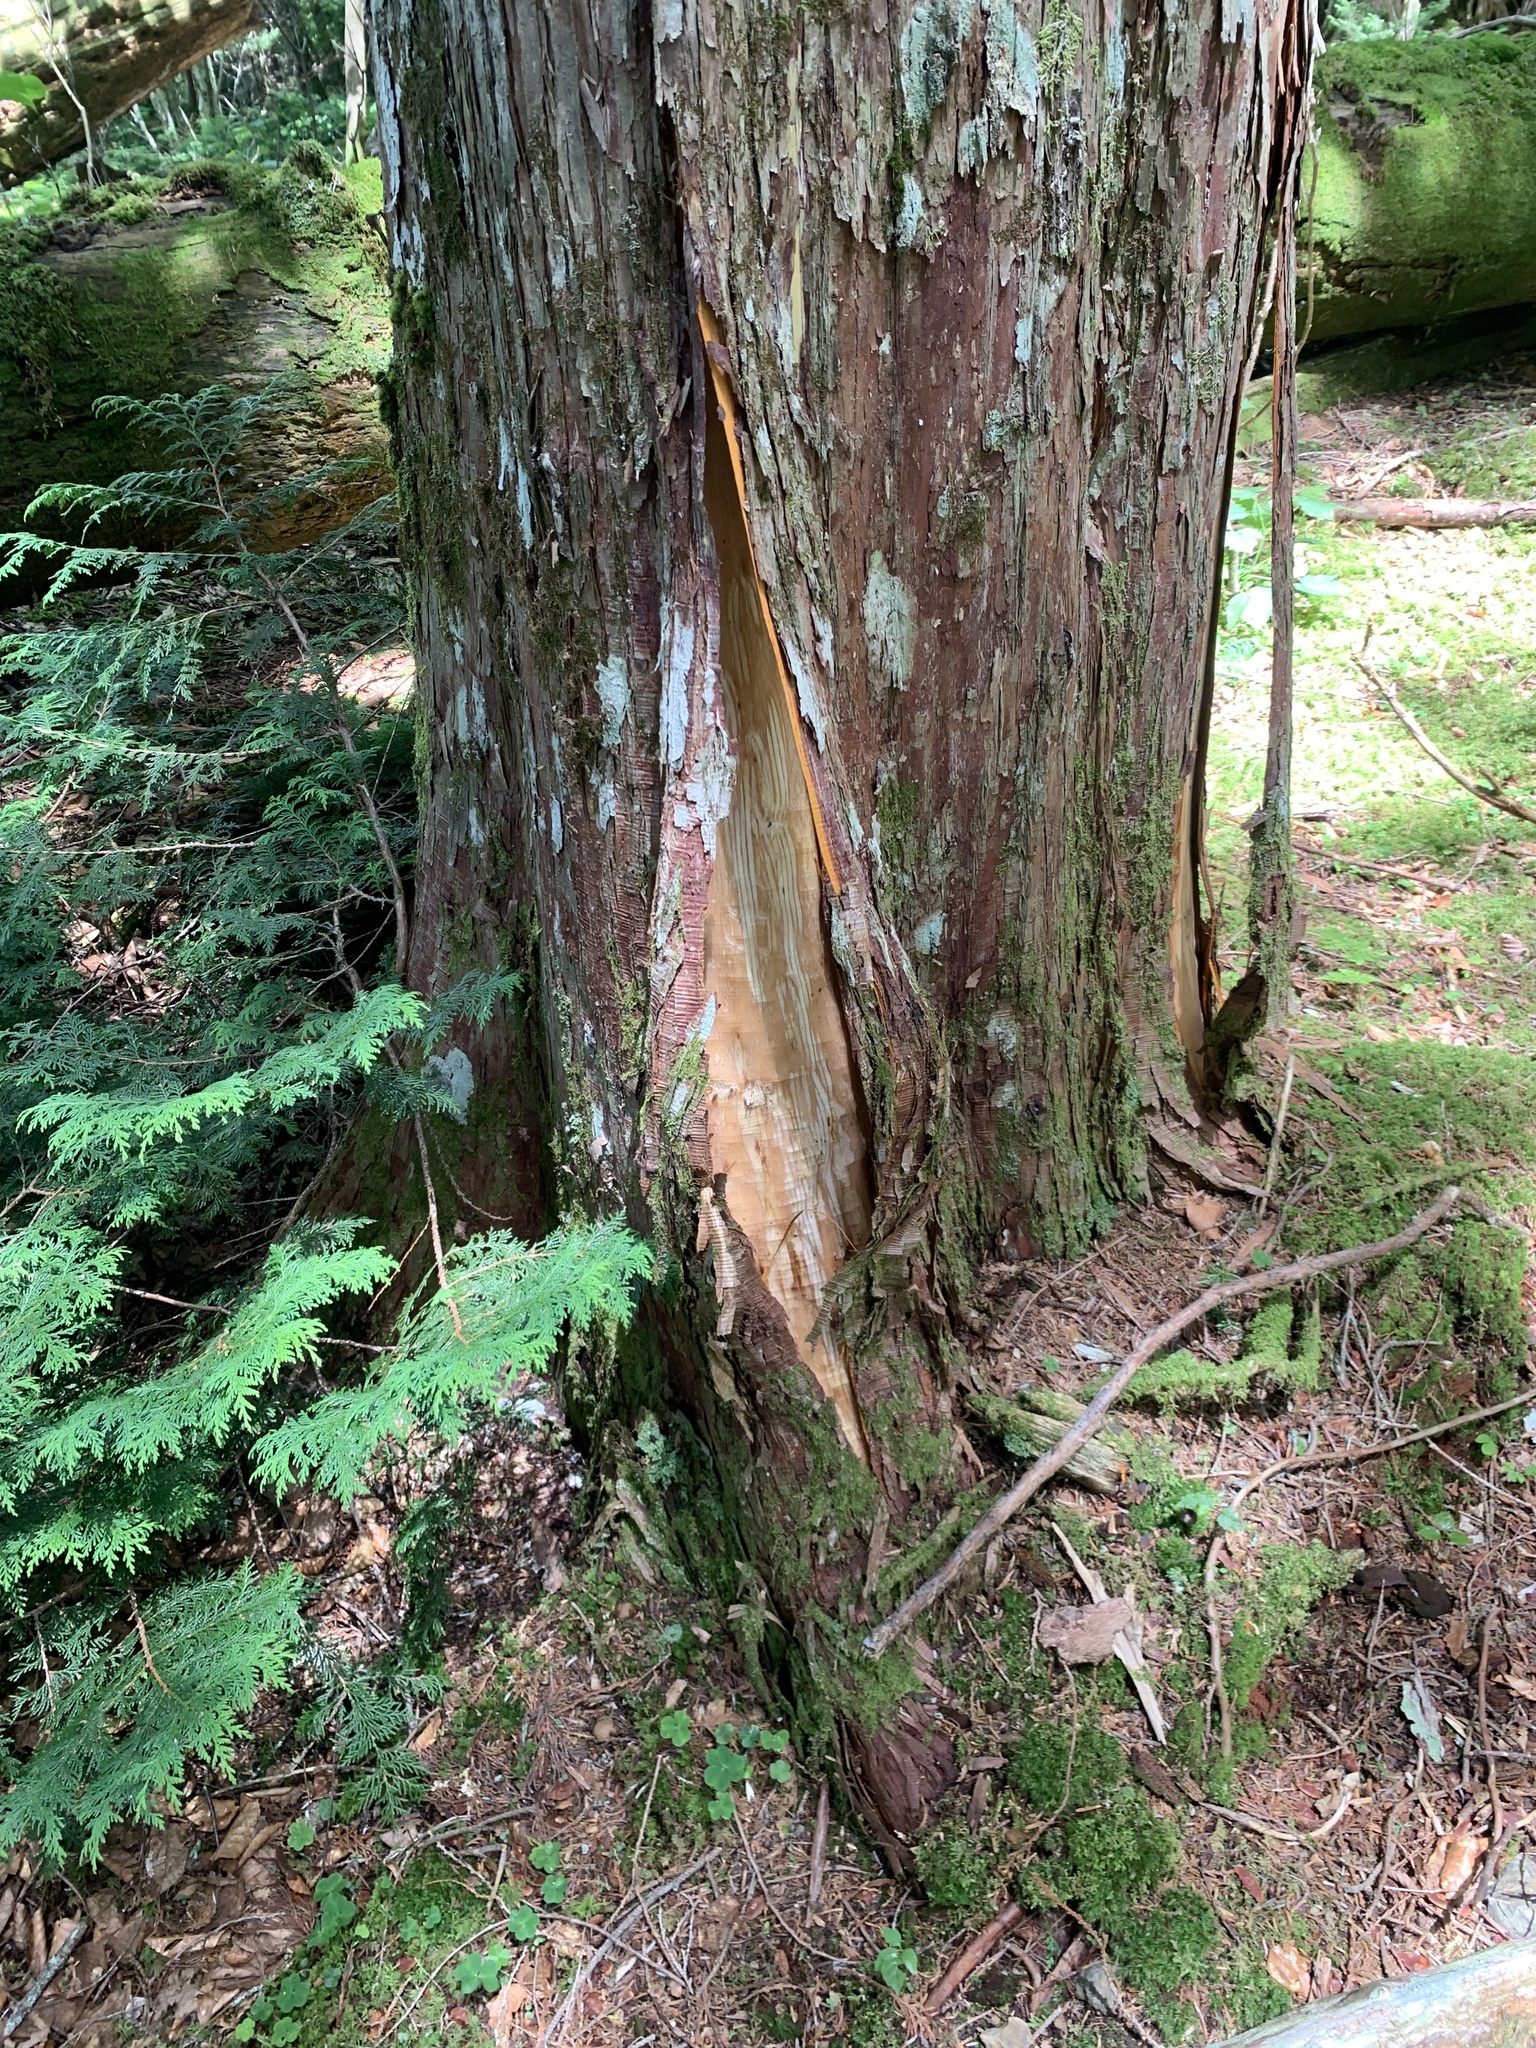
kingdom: Animalia
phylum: Chordata
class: Mammalia
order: Carnivora
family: Ursidae
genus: Ursus
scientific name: Ursus thibetanus
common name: Asiatic black bear
